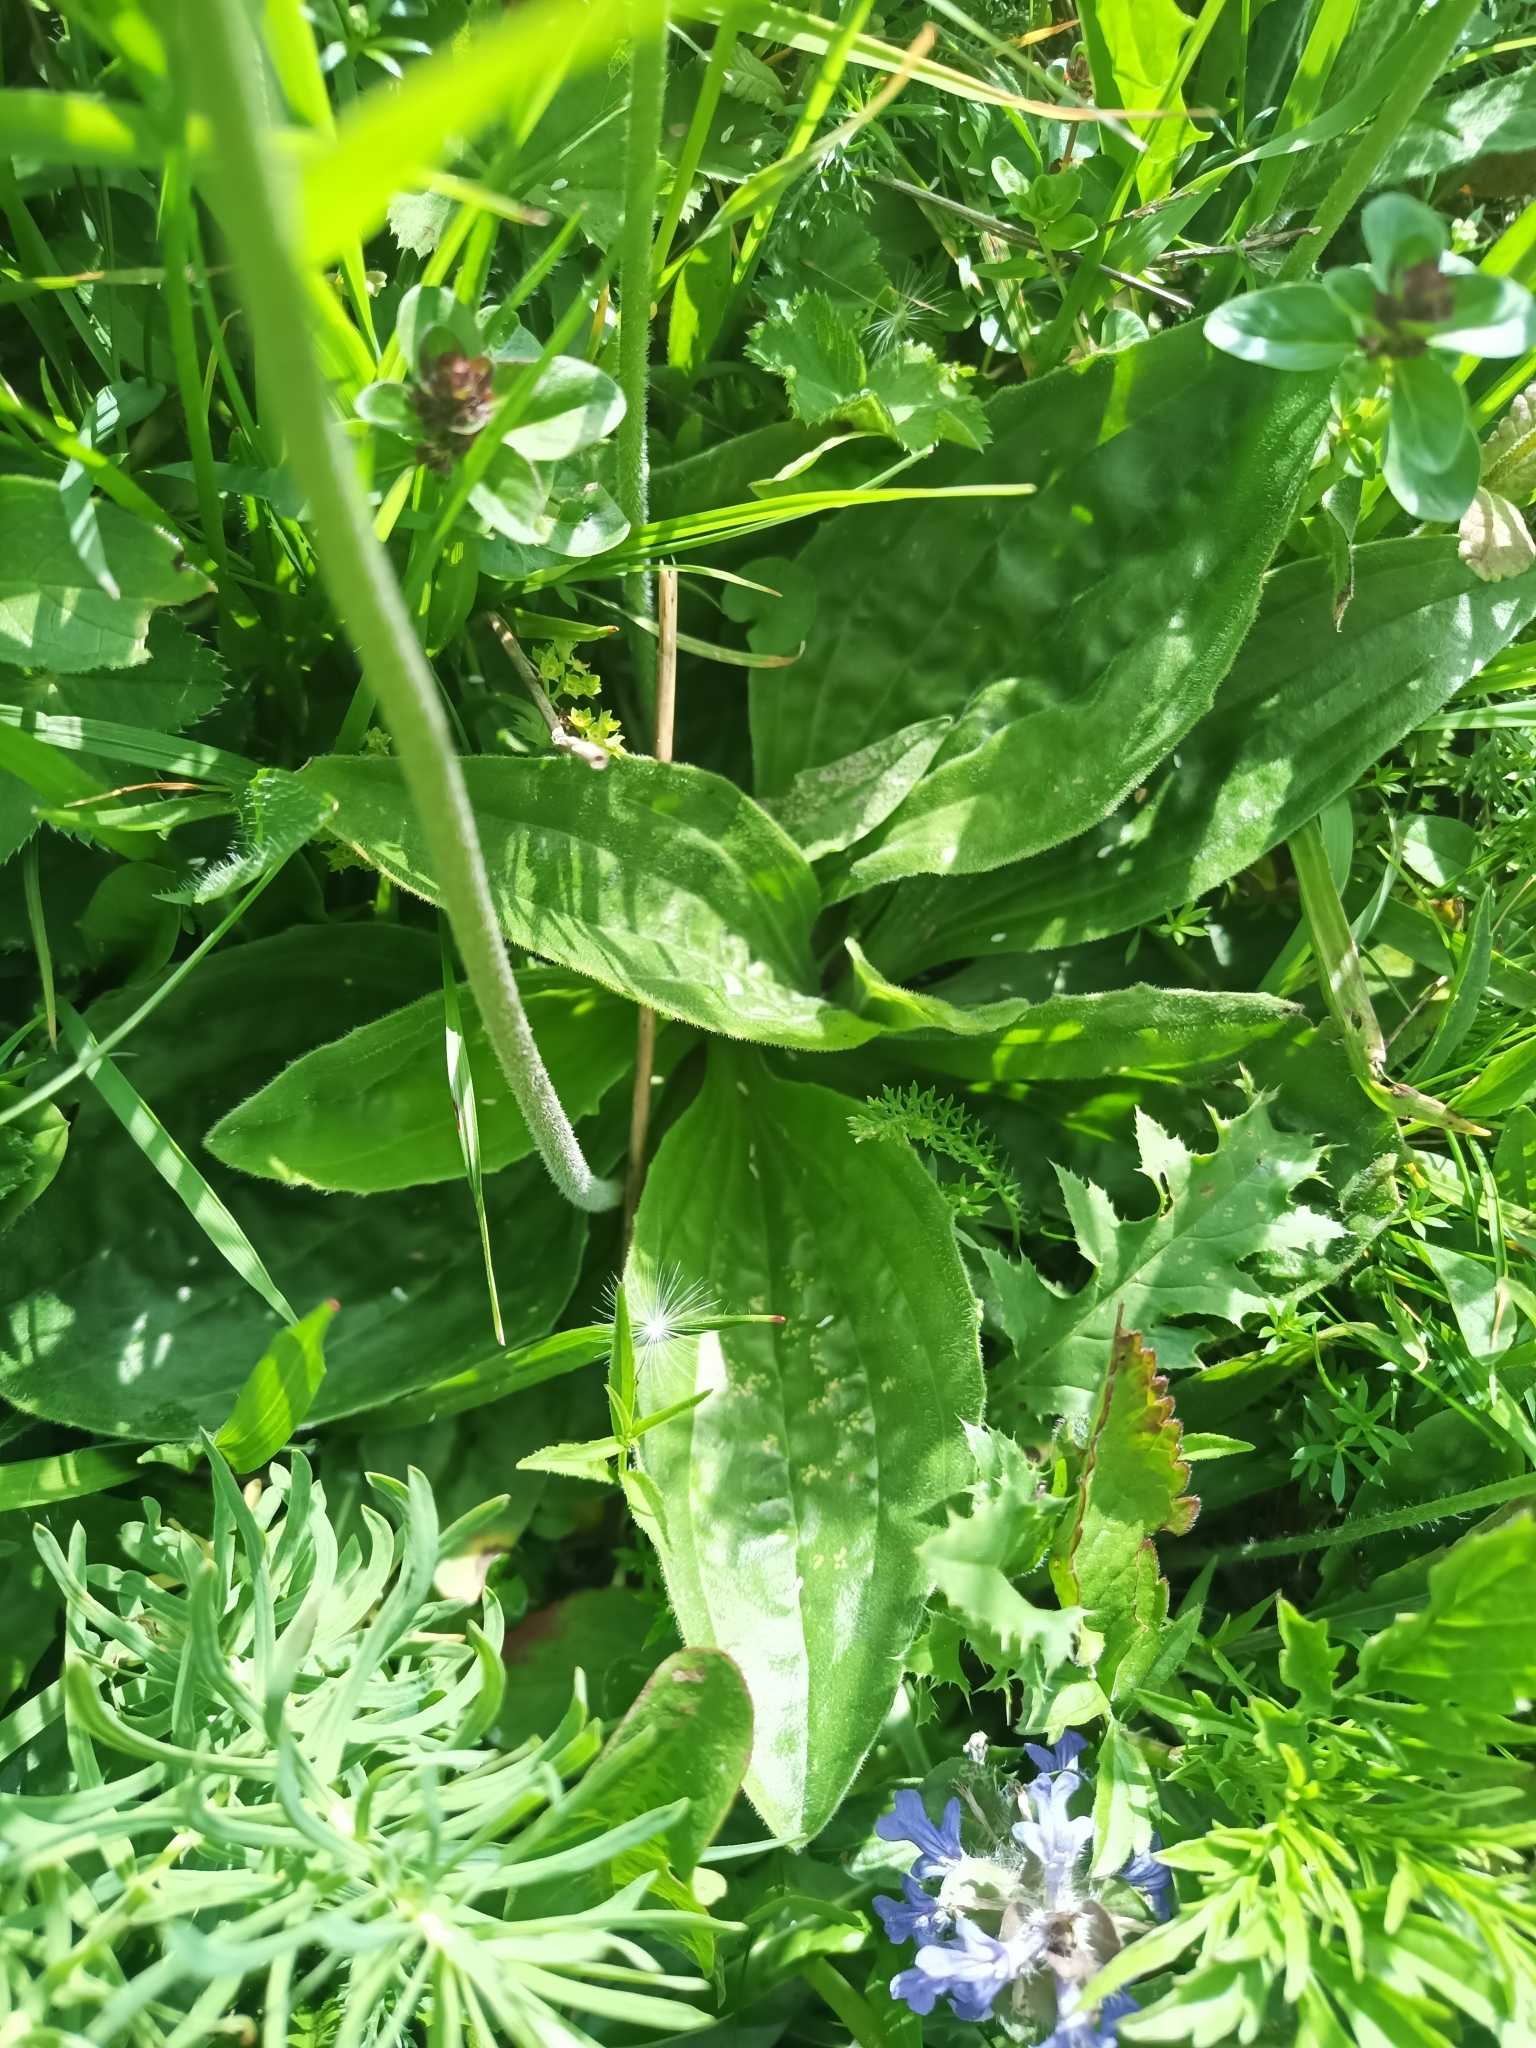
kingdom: Plantae
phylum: Tracheophyta
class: Magnoliopsida
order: Lamiales
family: Plantaginaceae
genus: Plantago
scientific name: Plantago media
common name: Hoary plantain
